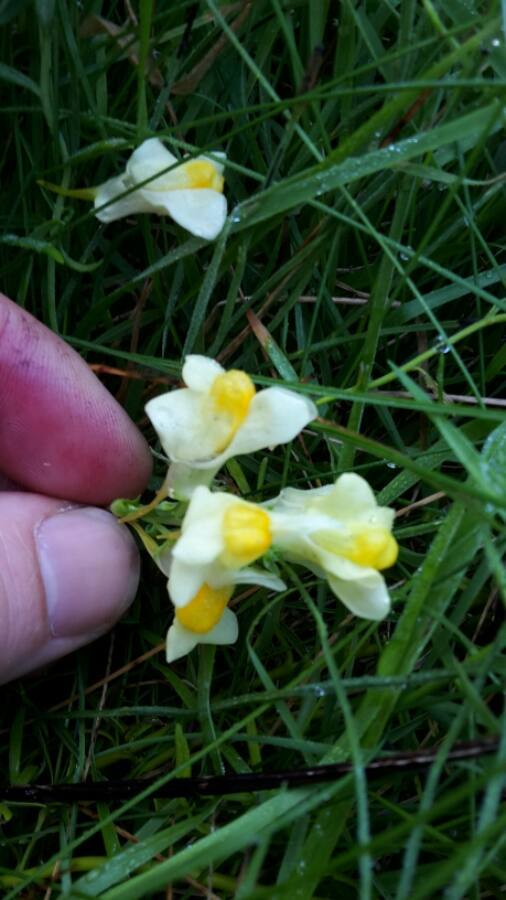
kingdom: Plantae
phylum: Tracheophyta
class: Magnoliopsida
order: Lamiales
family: Plantaginaceae
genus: Linaria
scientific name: Linaria vulgaris
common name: Butter and eggs
